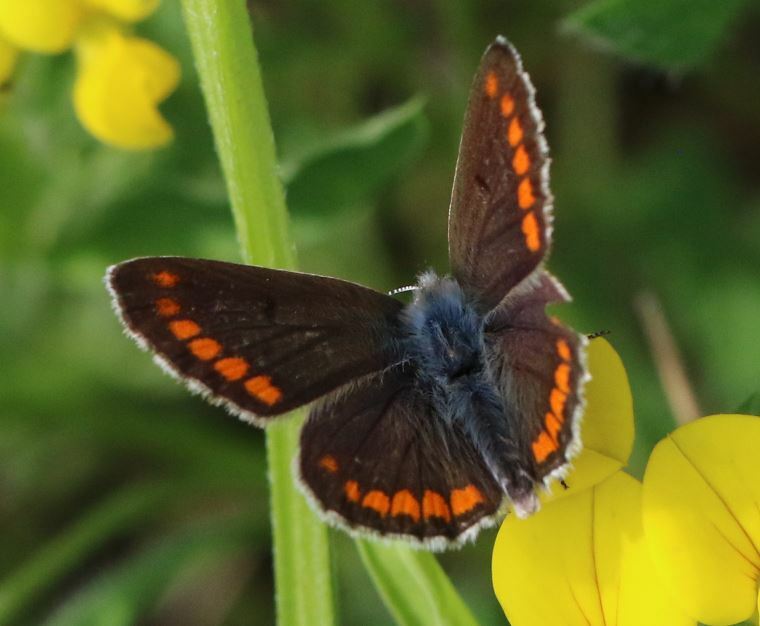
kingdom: Animalia
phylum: Arthropoda
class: Insecta
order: Lepidoptera
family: Lycaenidae
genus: Aricia
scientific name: Aricia agestis
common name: Brown argus
